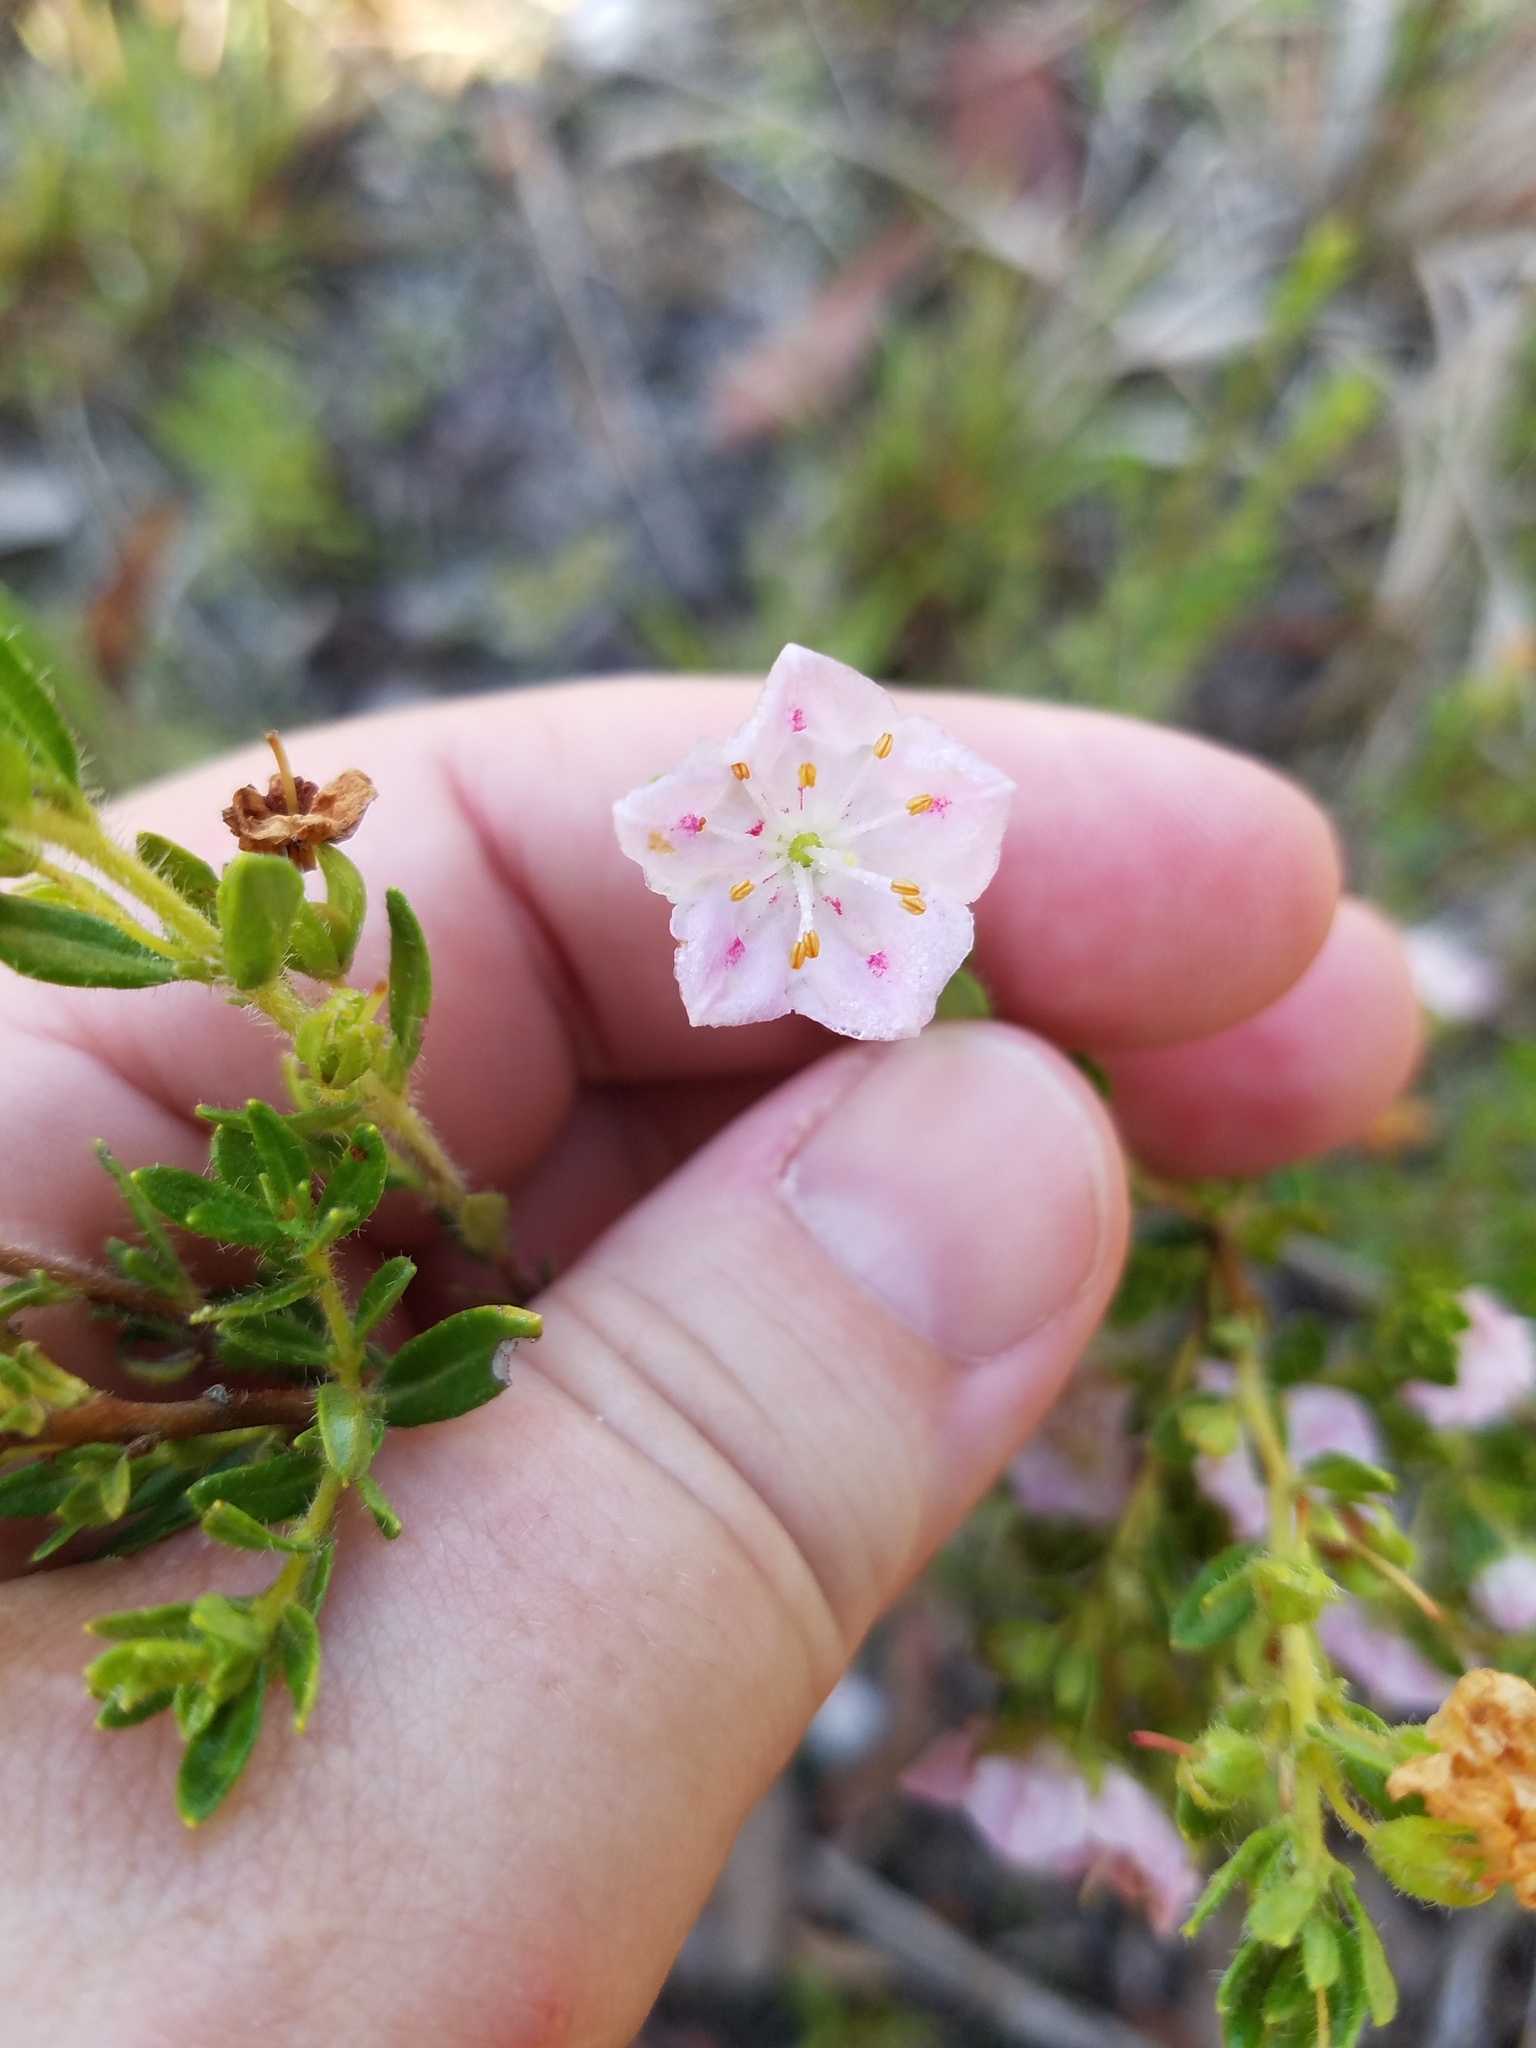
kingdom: Plantae
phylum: Tracheophyta
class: Magnoliopsida
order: Ericales
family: Ericaceae
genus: Kalmia
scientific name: Kalmia hirsuta
